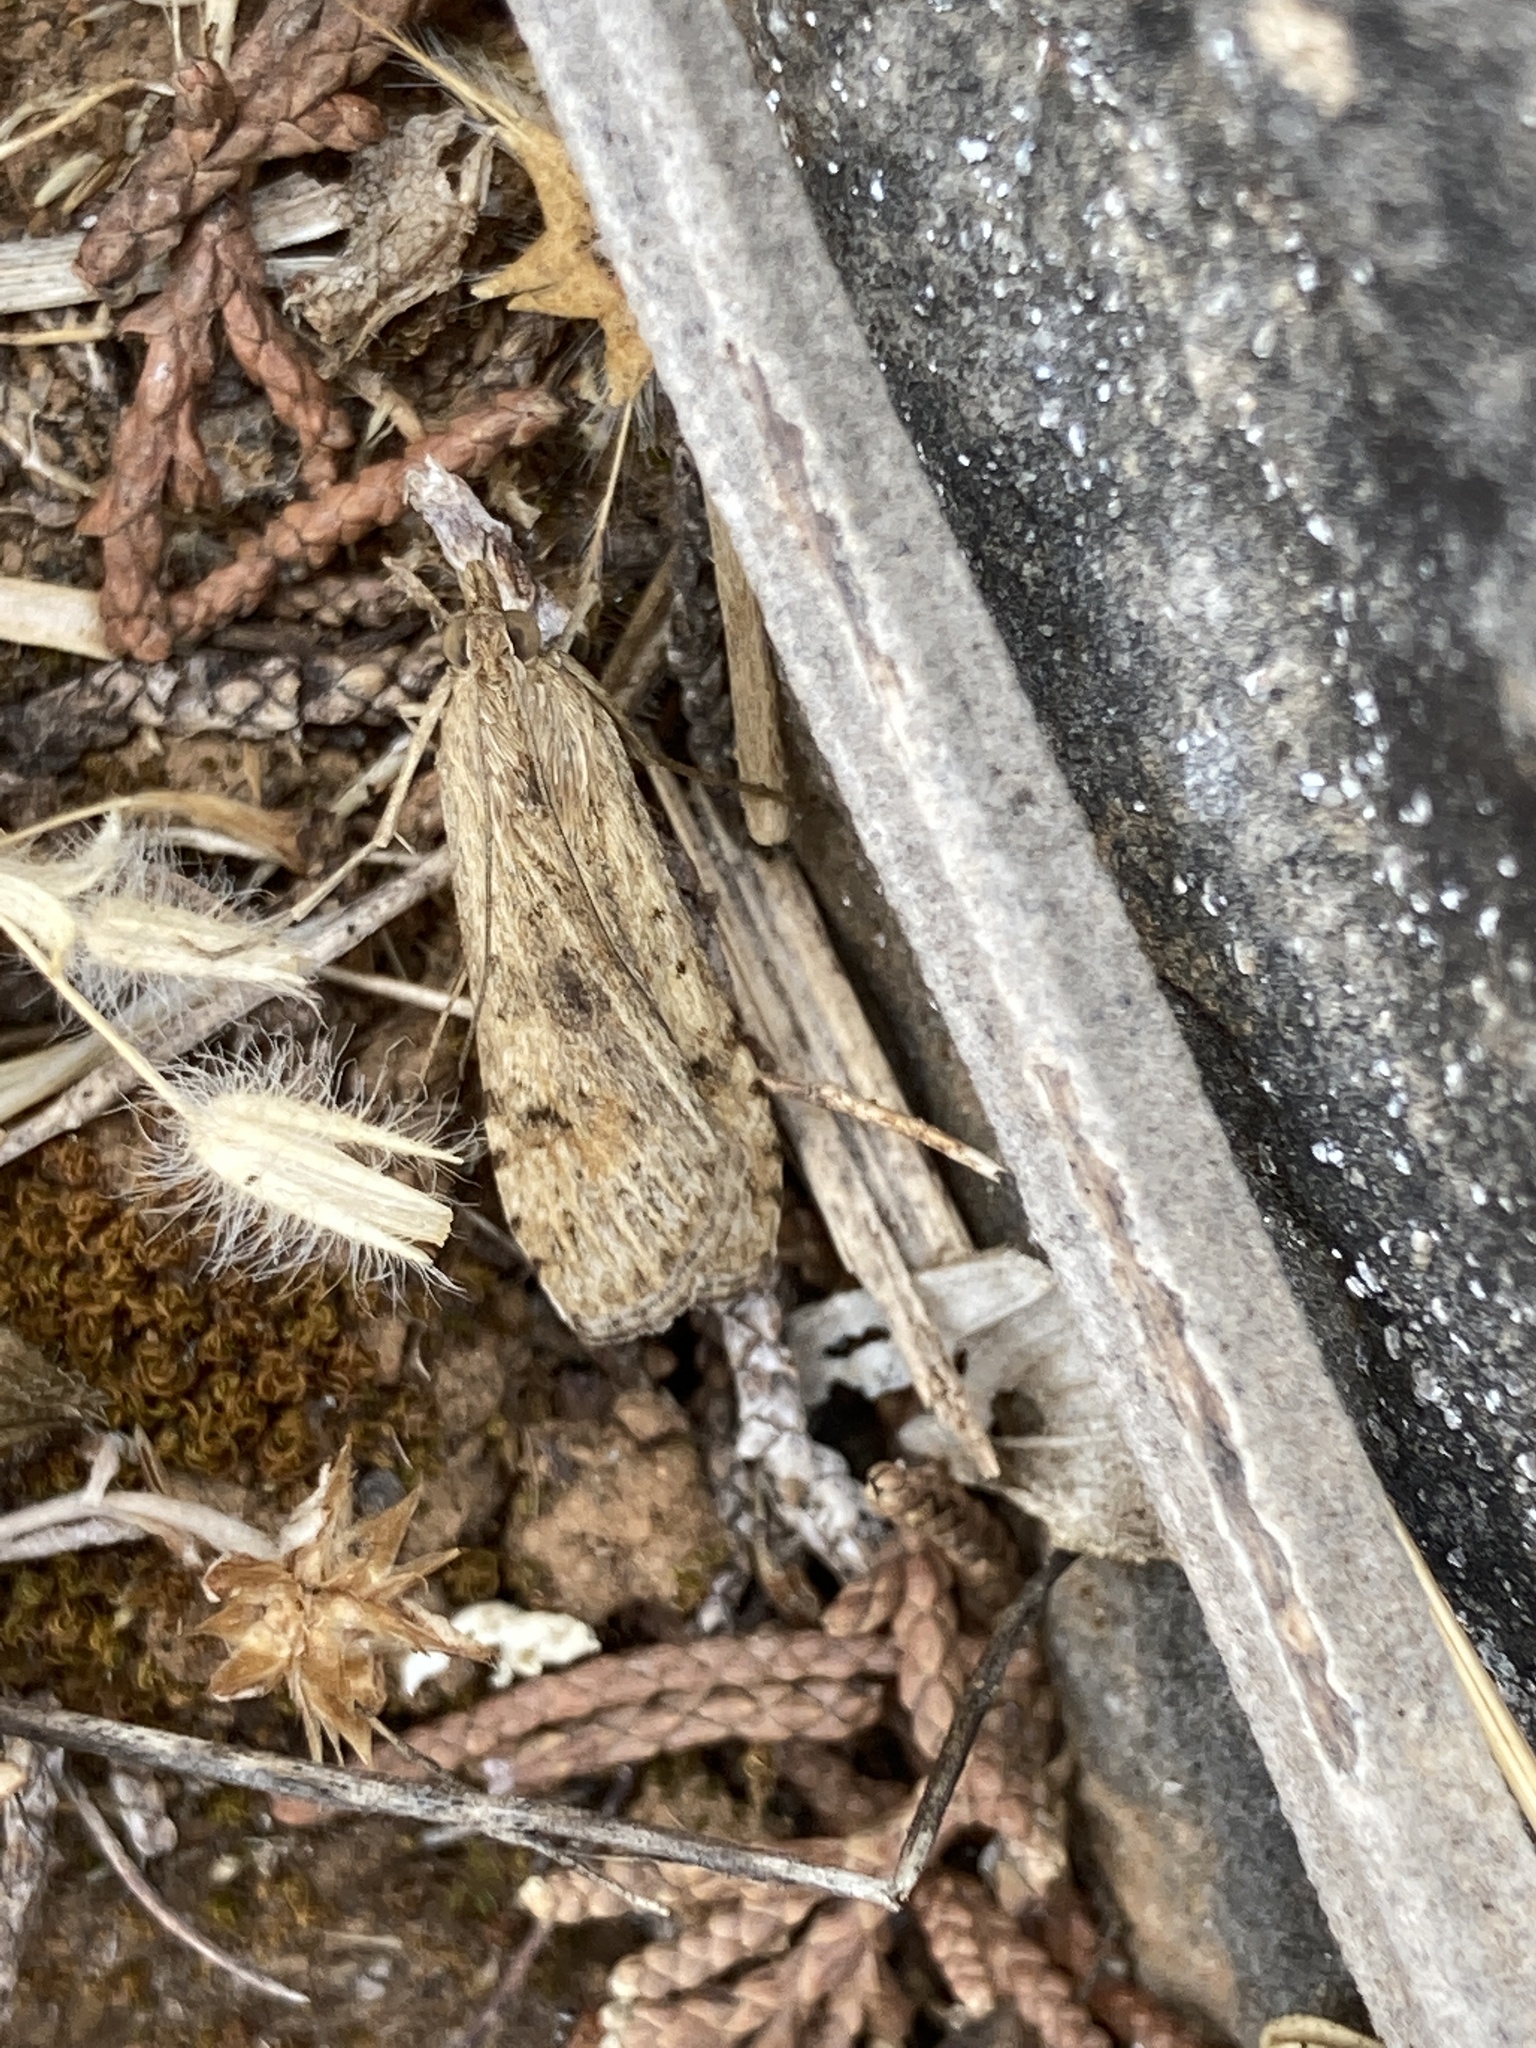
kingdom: Animalia
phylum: Arthropoda
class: Insecta
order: Lepidoptera
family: Crambidae
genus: Nomophila
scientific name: Nomophila noctuella
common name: Rush veneer
